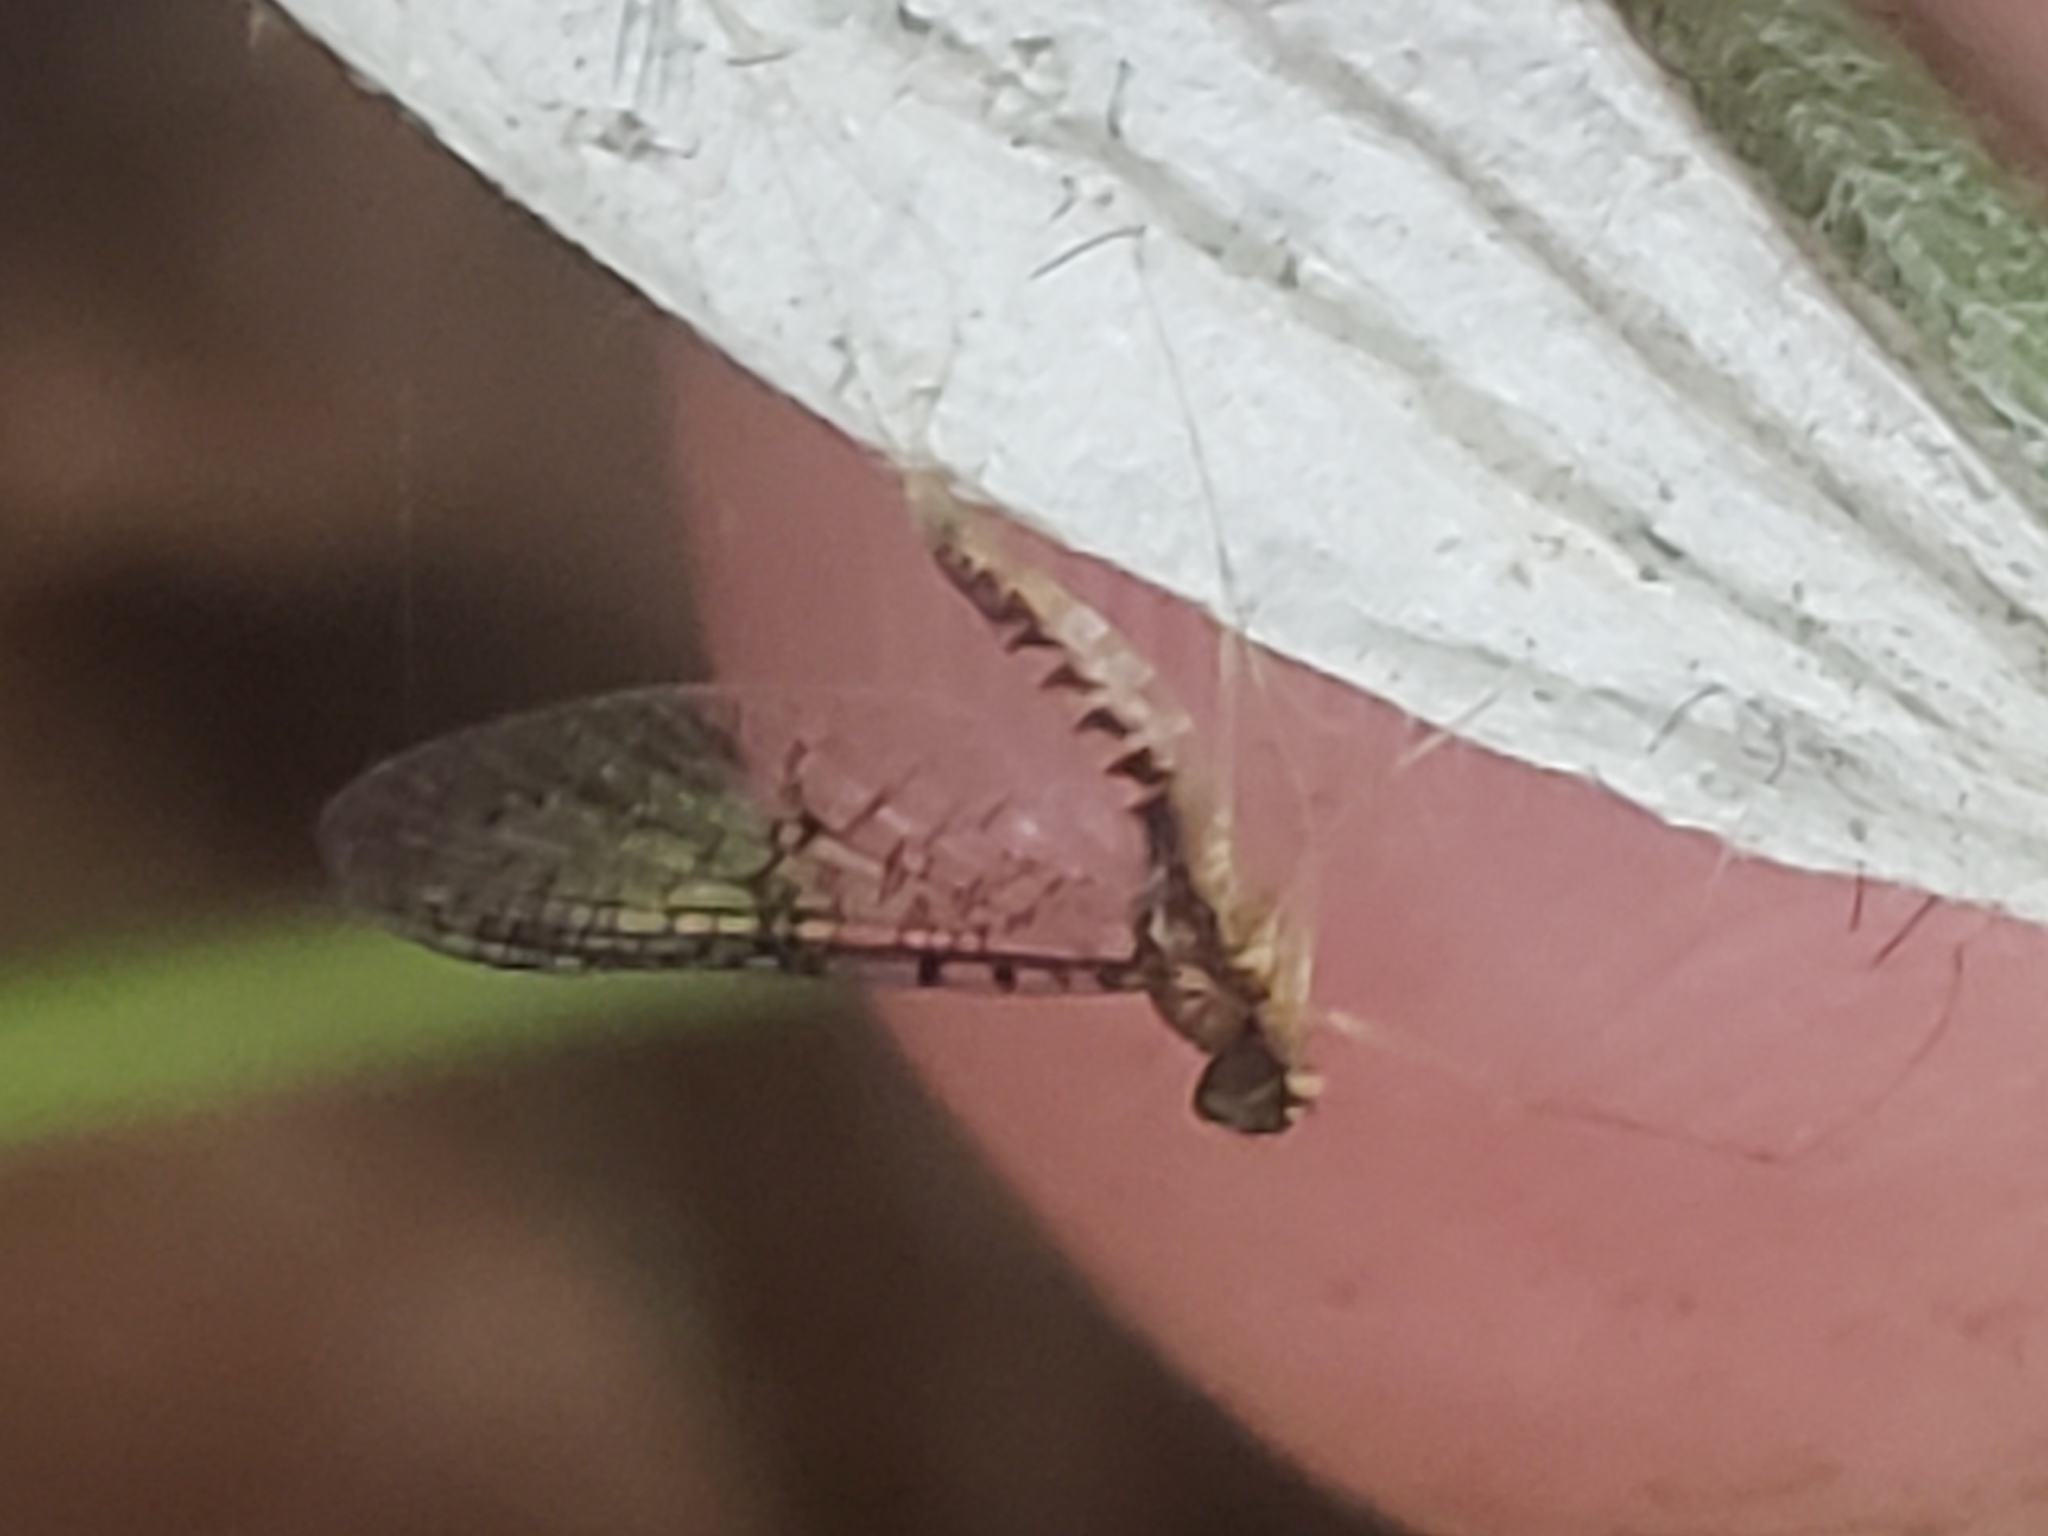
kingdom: Animalia
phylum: Arthropoda
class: Insecta
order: Ephemeroptera
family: Heptageniidae
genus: Leucrocuta
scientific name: Leucrocuta aphrodite
